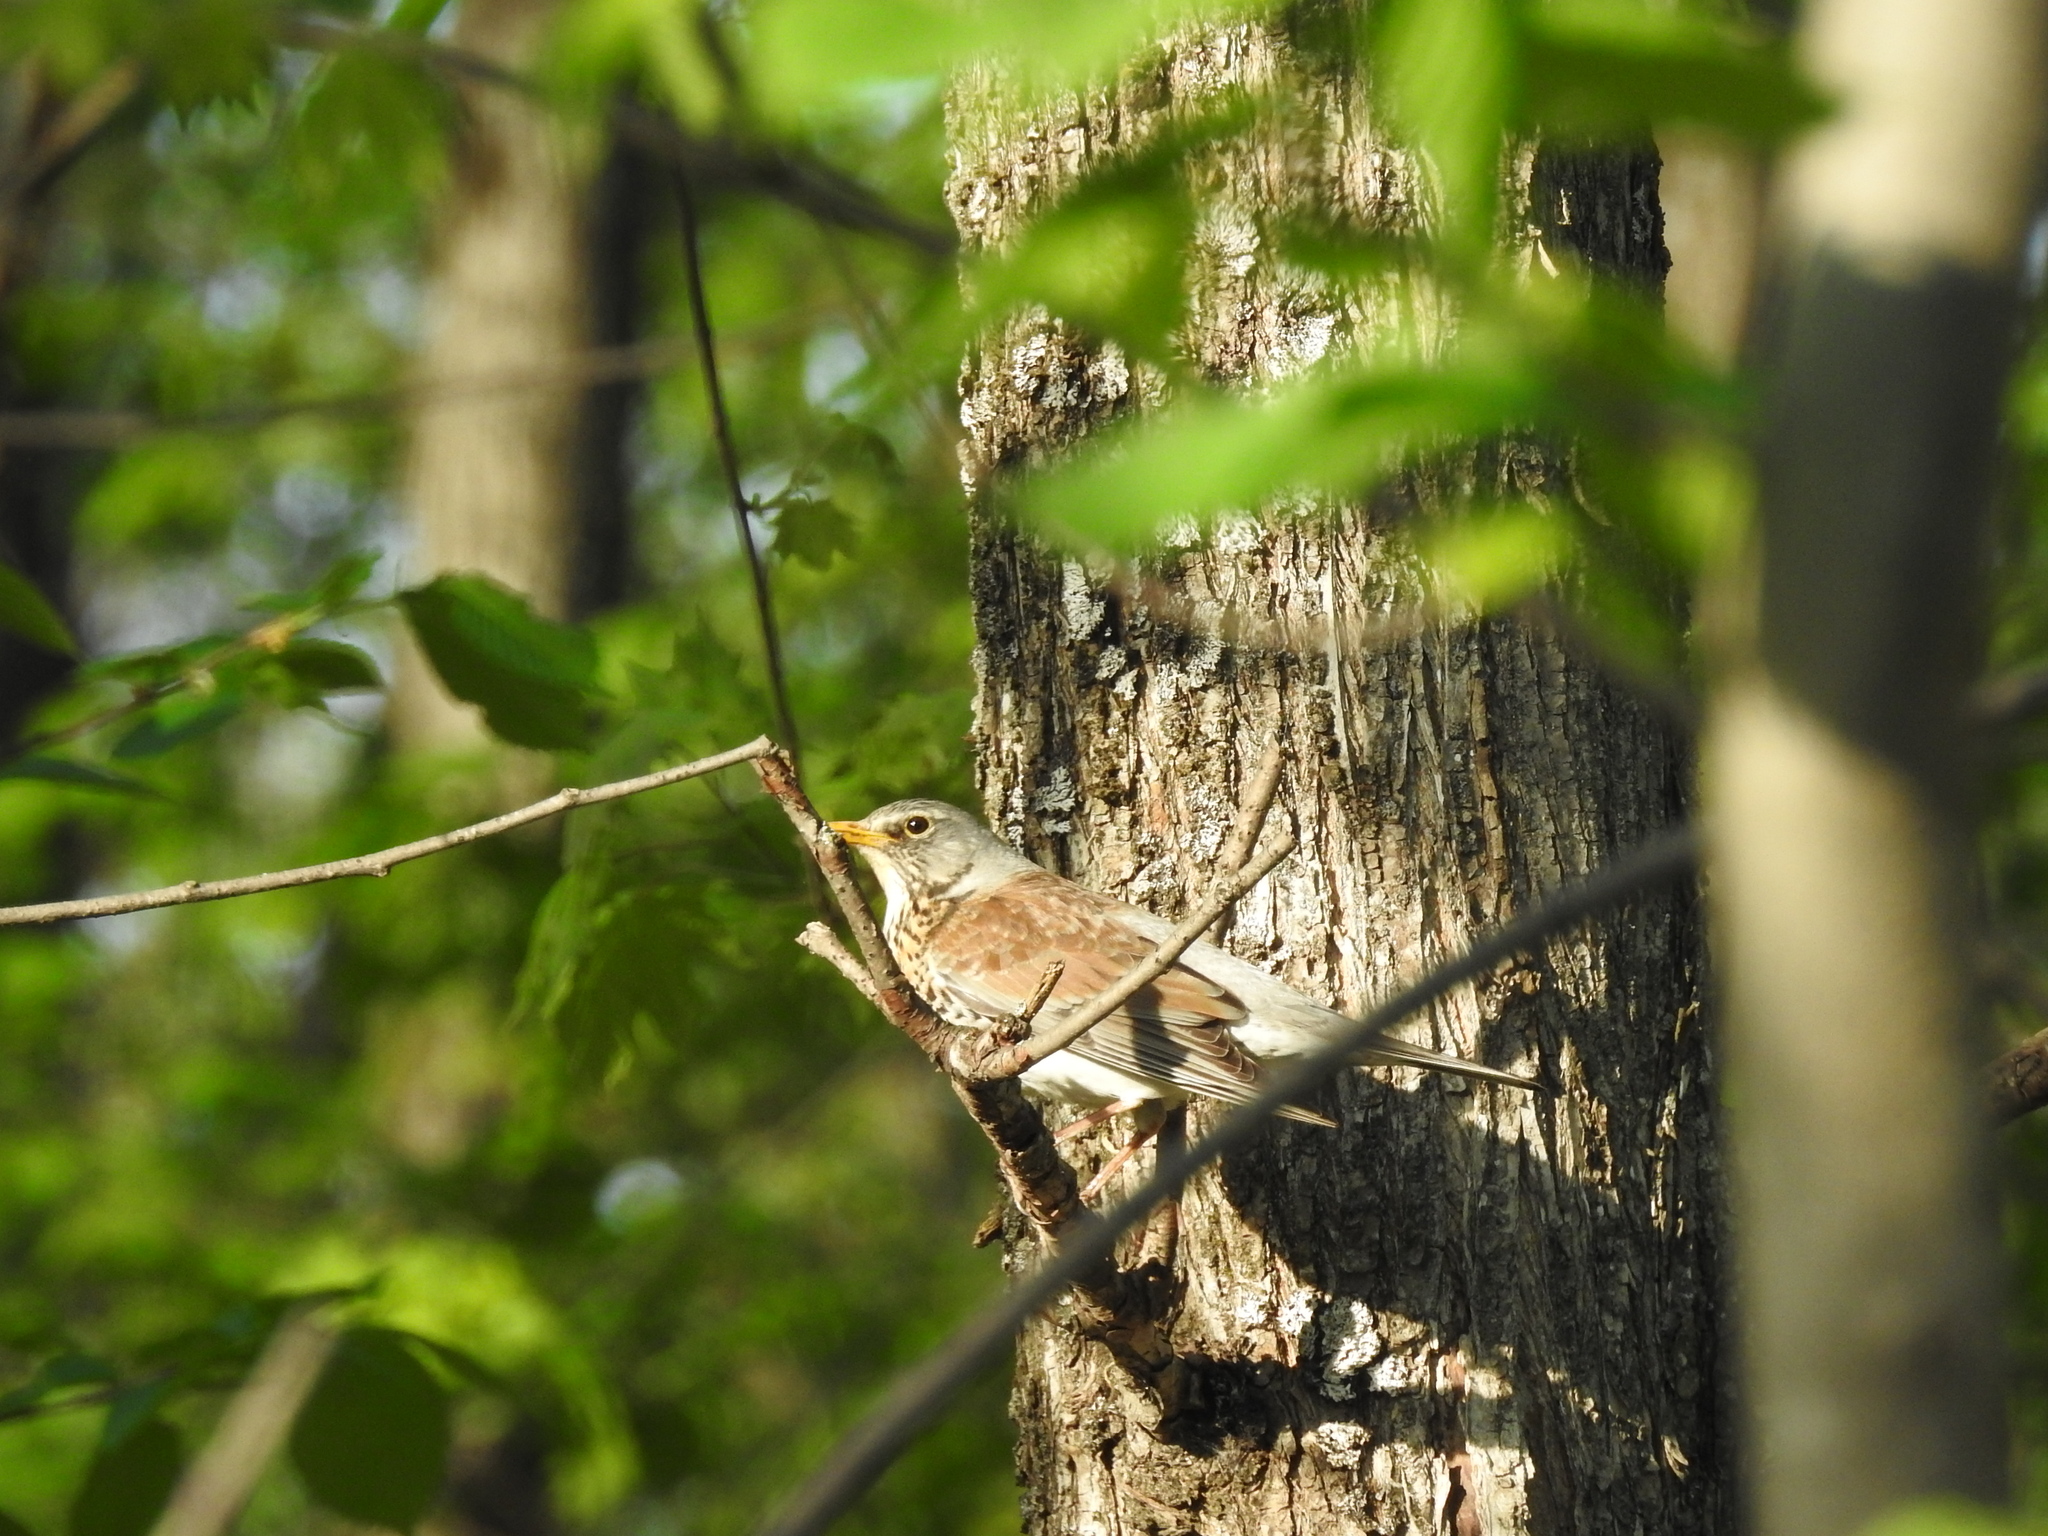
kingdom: Animalia
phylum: Chordata
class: Aves
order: Passeriformes
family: Turdidae
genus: Turdus
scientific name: Turdus pilaris
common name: Fieldfare
